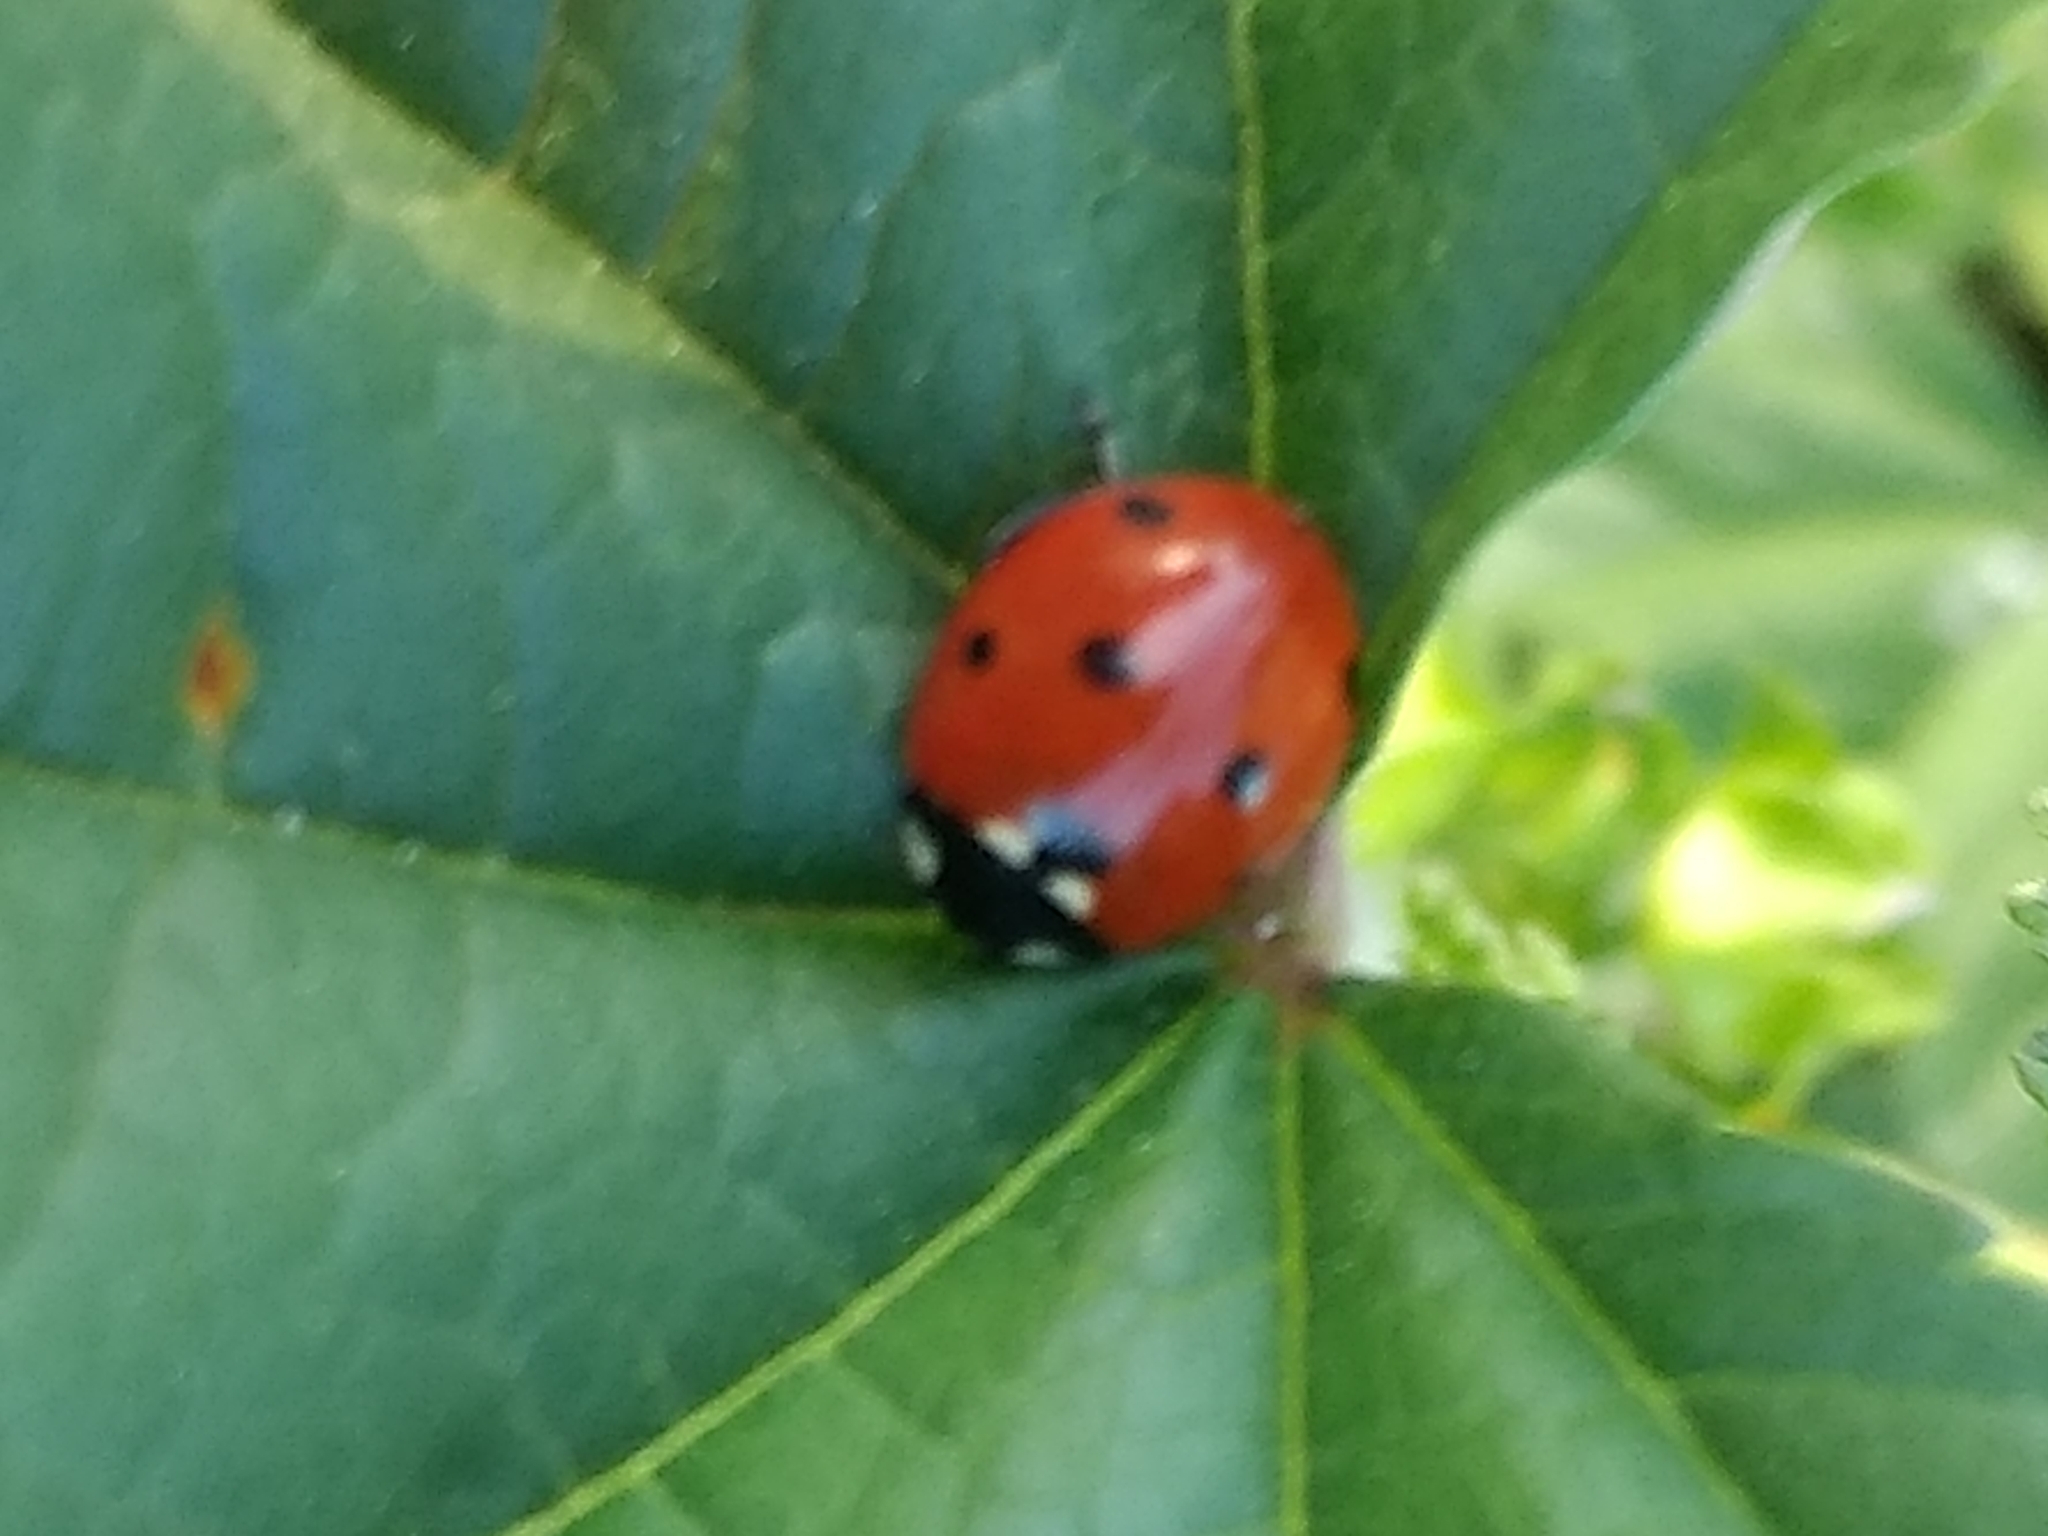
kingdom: Animalia
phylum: Arthropoda
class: Insecta
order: Coleoptera
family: Coccinellidae
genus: Coccinella
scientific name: Coccinella septempunctata
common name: Sevenspotted lady beetle
